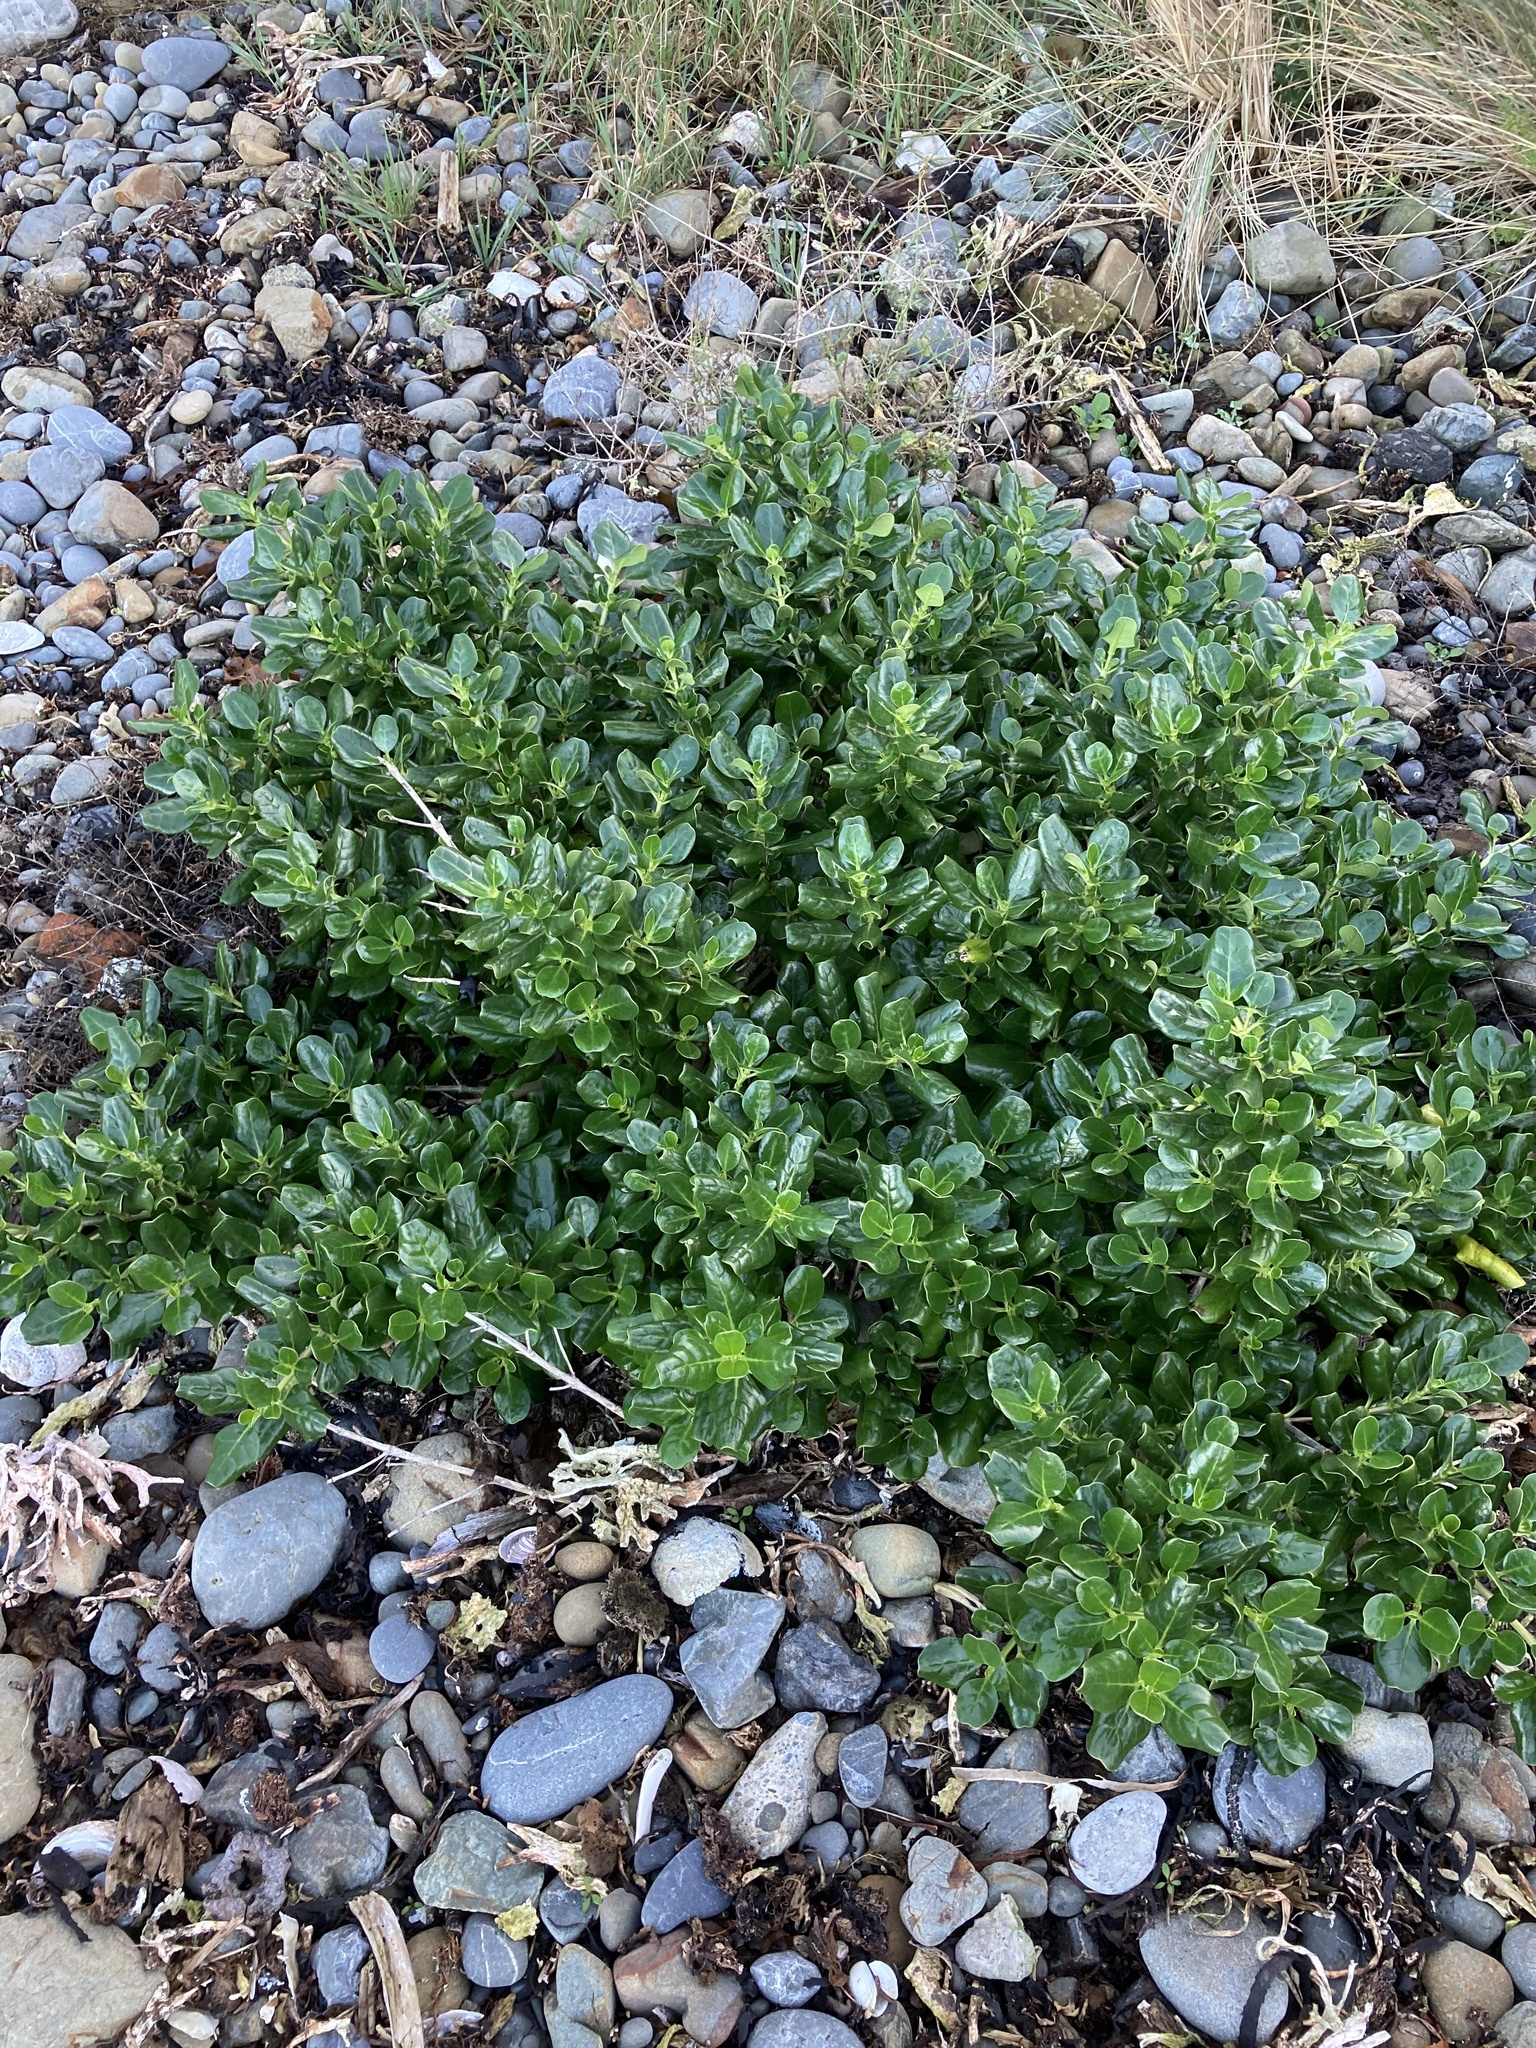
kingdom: Plantae
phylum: Tracheophyta
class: Magnoliopsida
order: Gentianales
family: Rubiaceae
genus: Coprosma
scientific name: Coprosma repens
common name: Tree bedstraw
